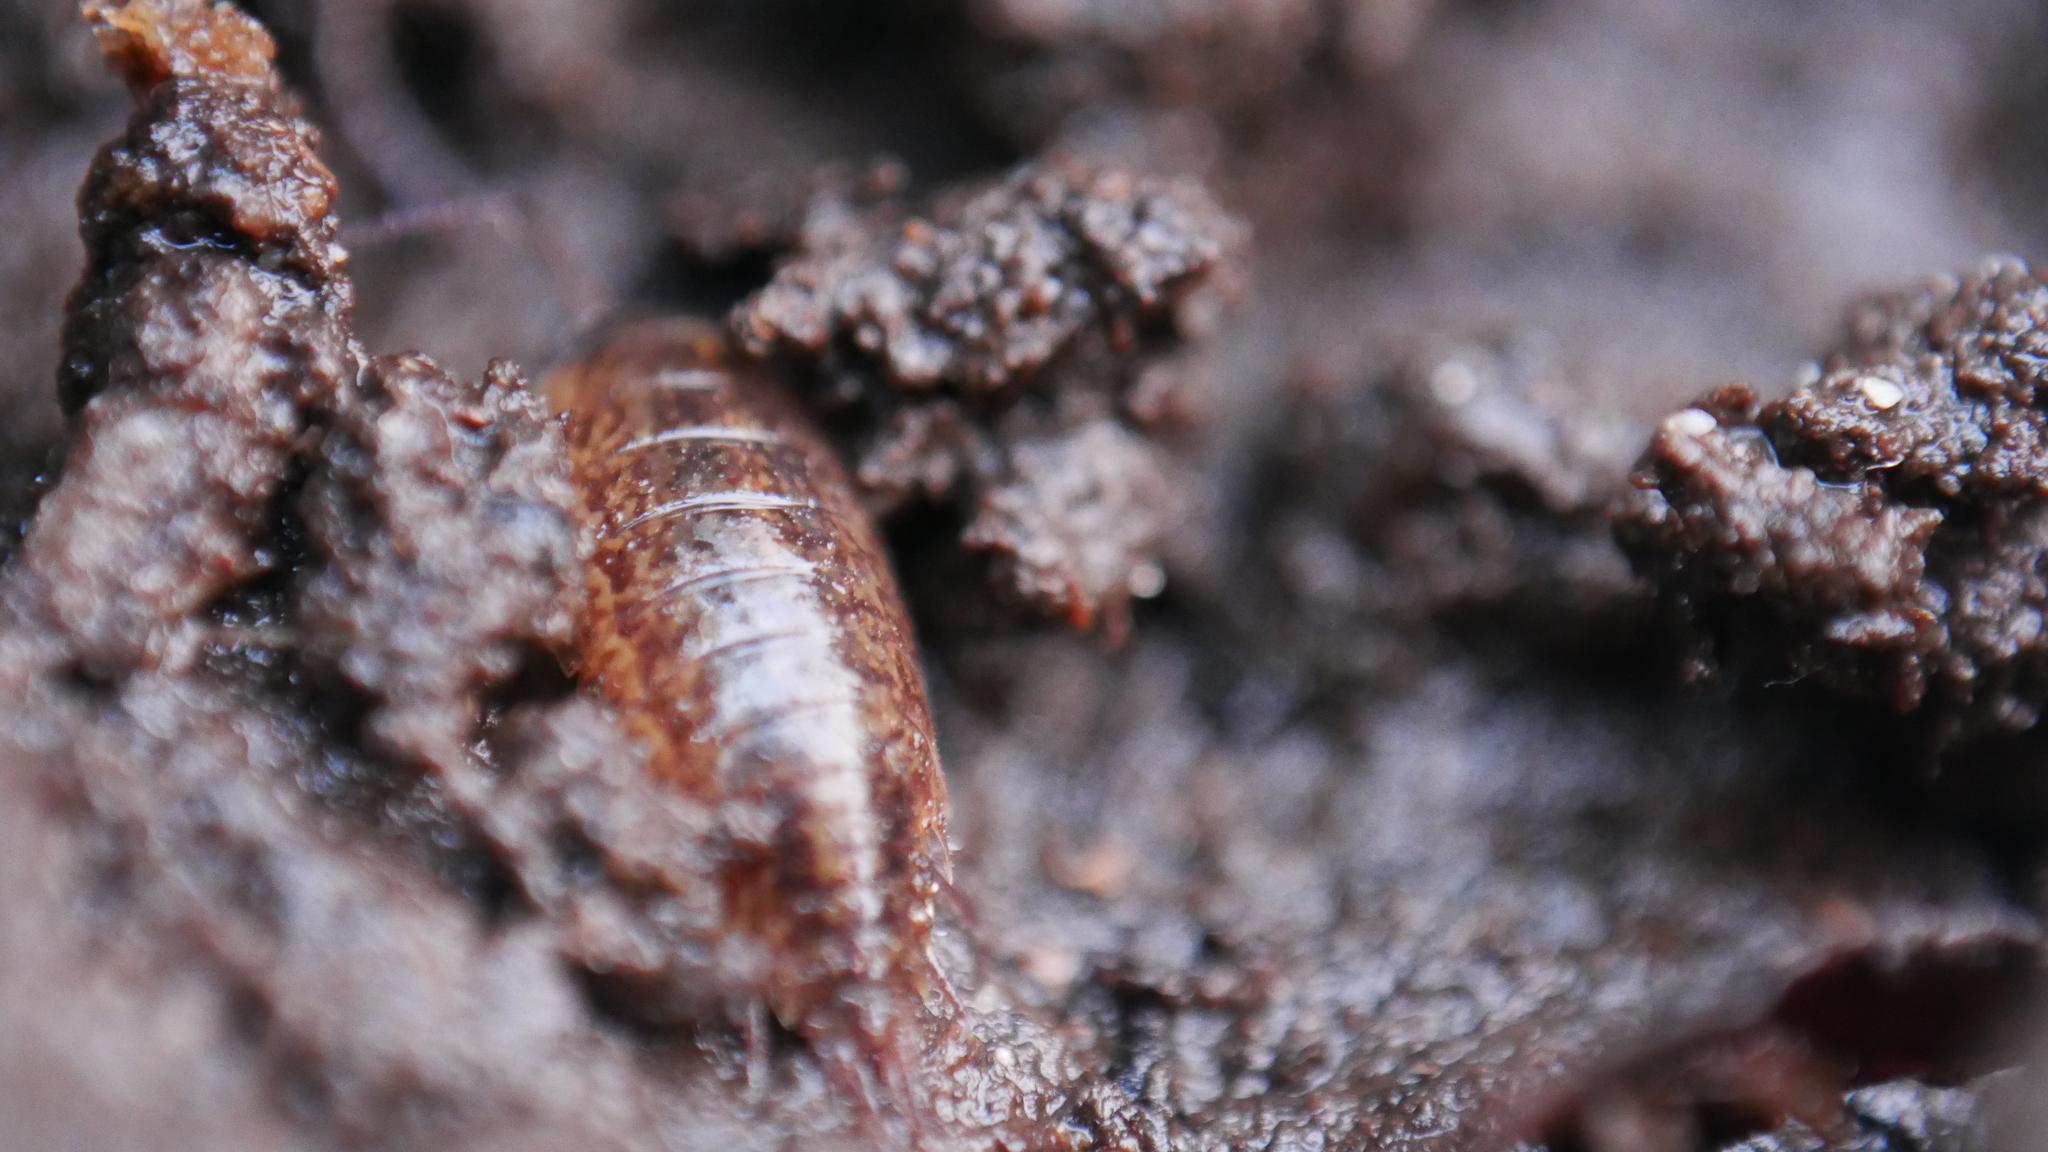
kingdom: Animalia
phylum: Arthropoda
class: Malacostraca
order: Isopoda
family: Ligiidae
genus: Ligidium
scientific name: Ligidium elrodii
